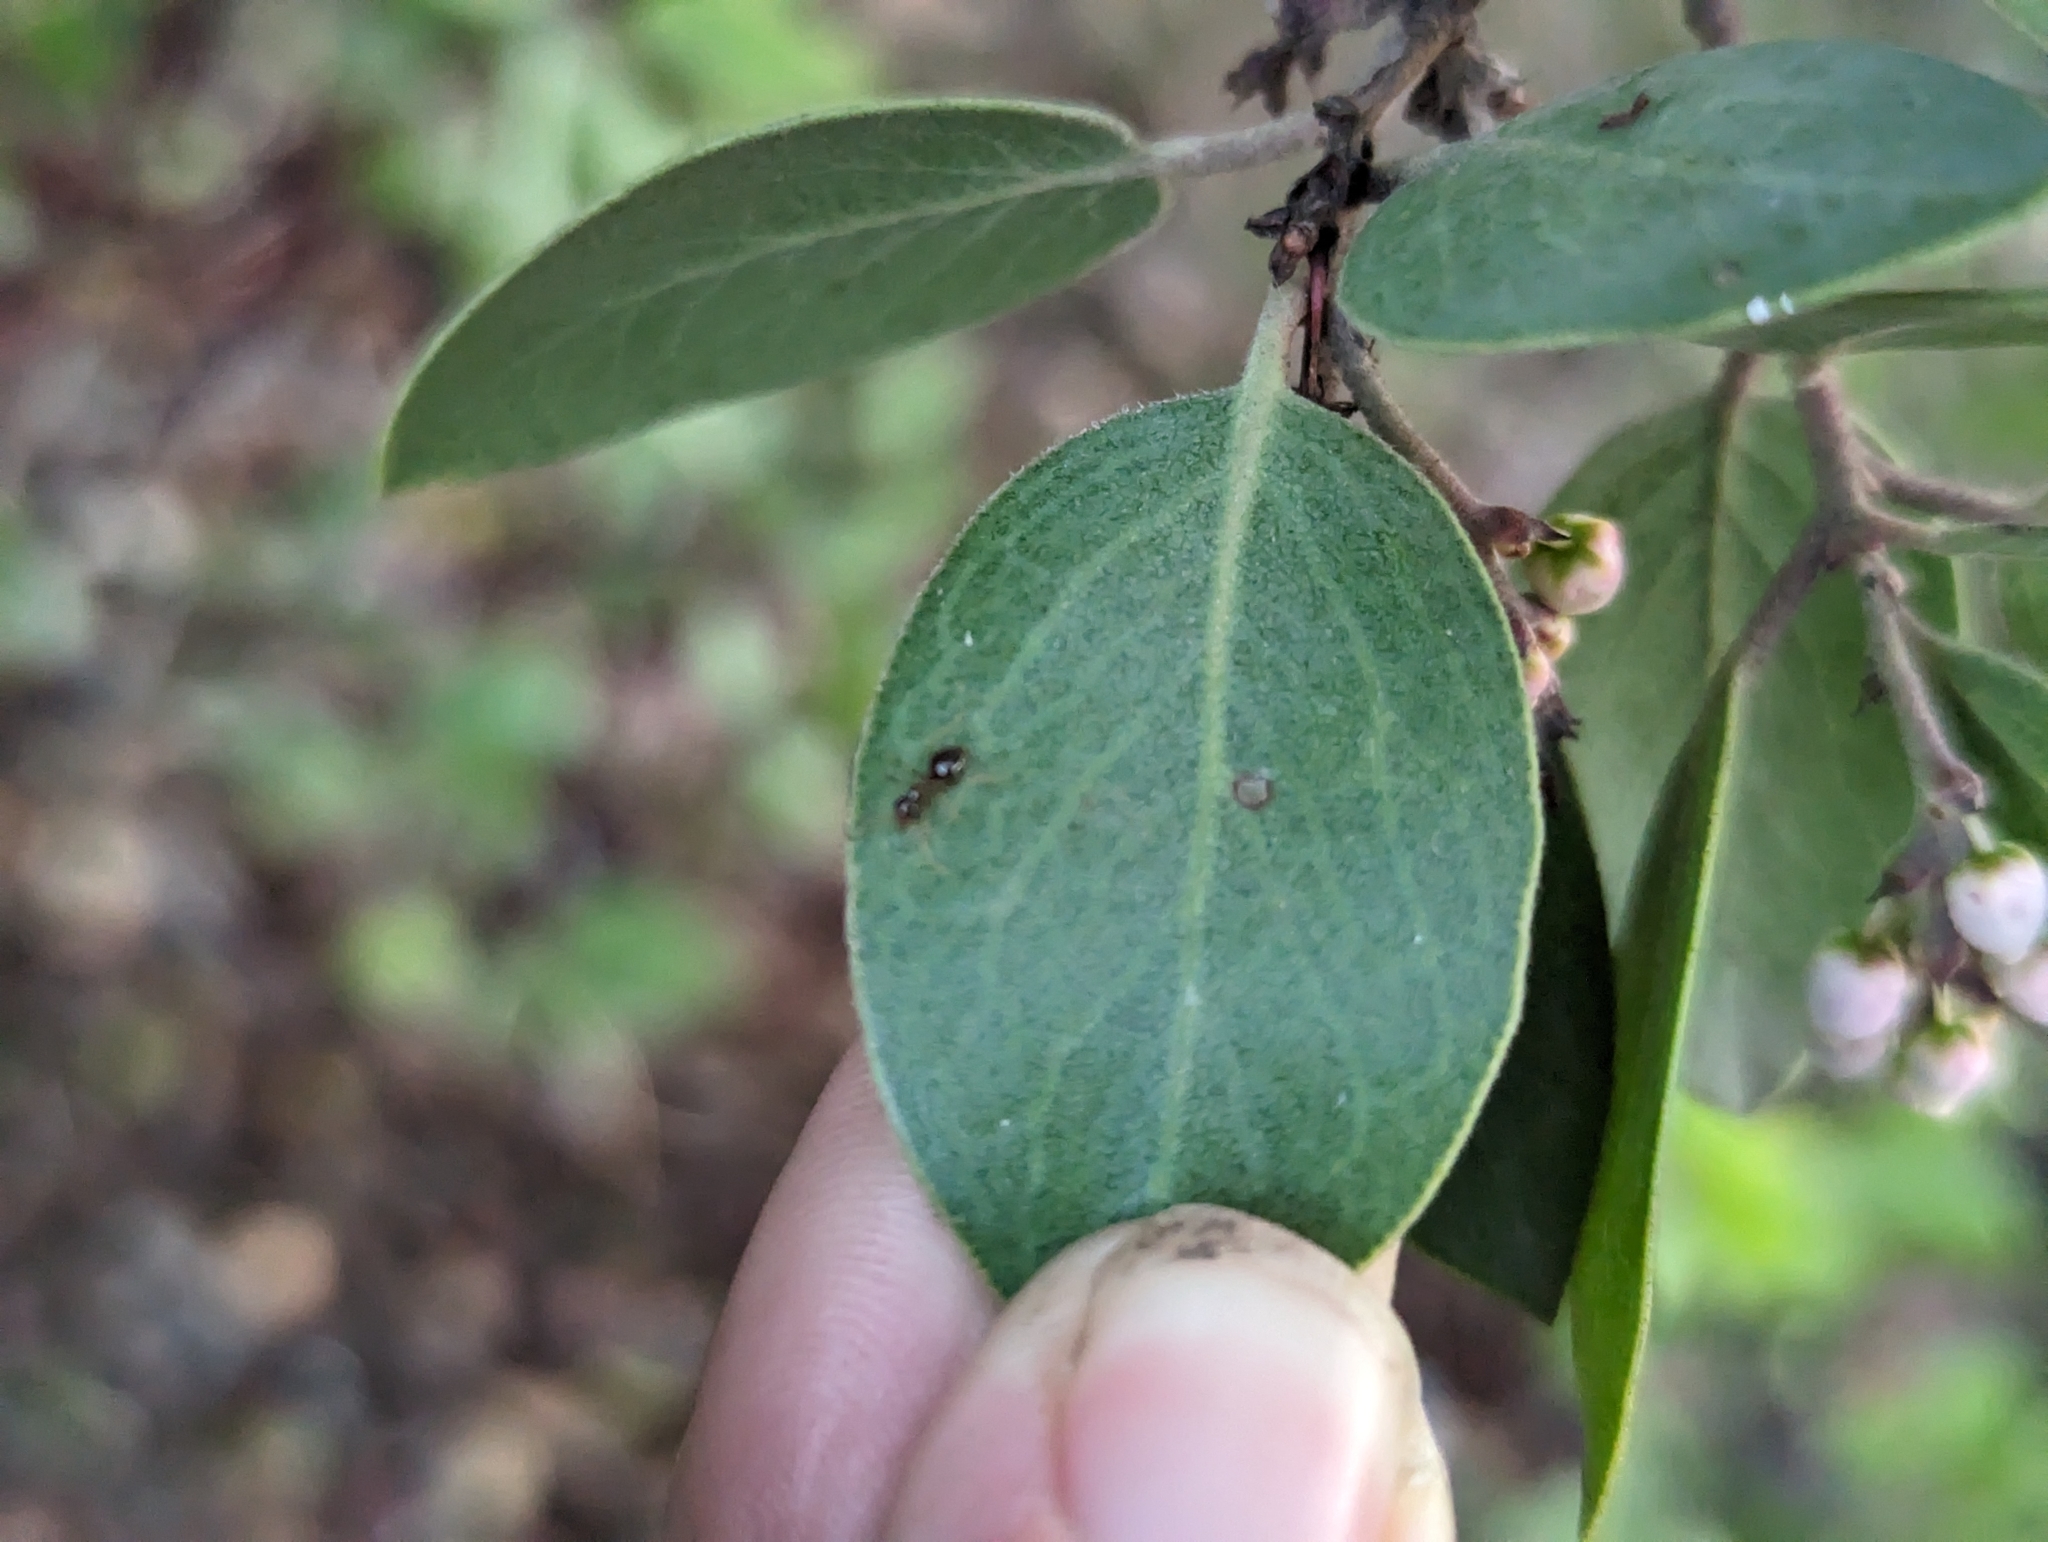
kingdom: Plantae
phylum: Tracheophyta
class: Magnoliopsida
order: Ericales
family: Ericaceae
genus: Arctostaphylos
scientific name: Arctostaphylos manzanita
